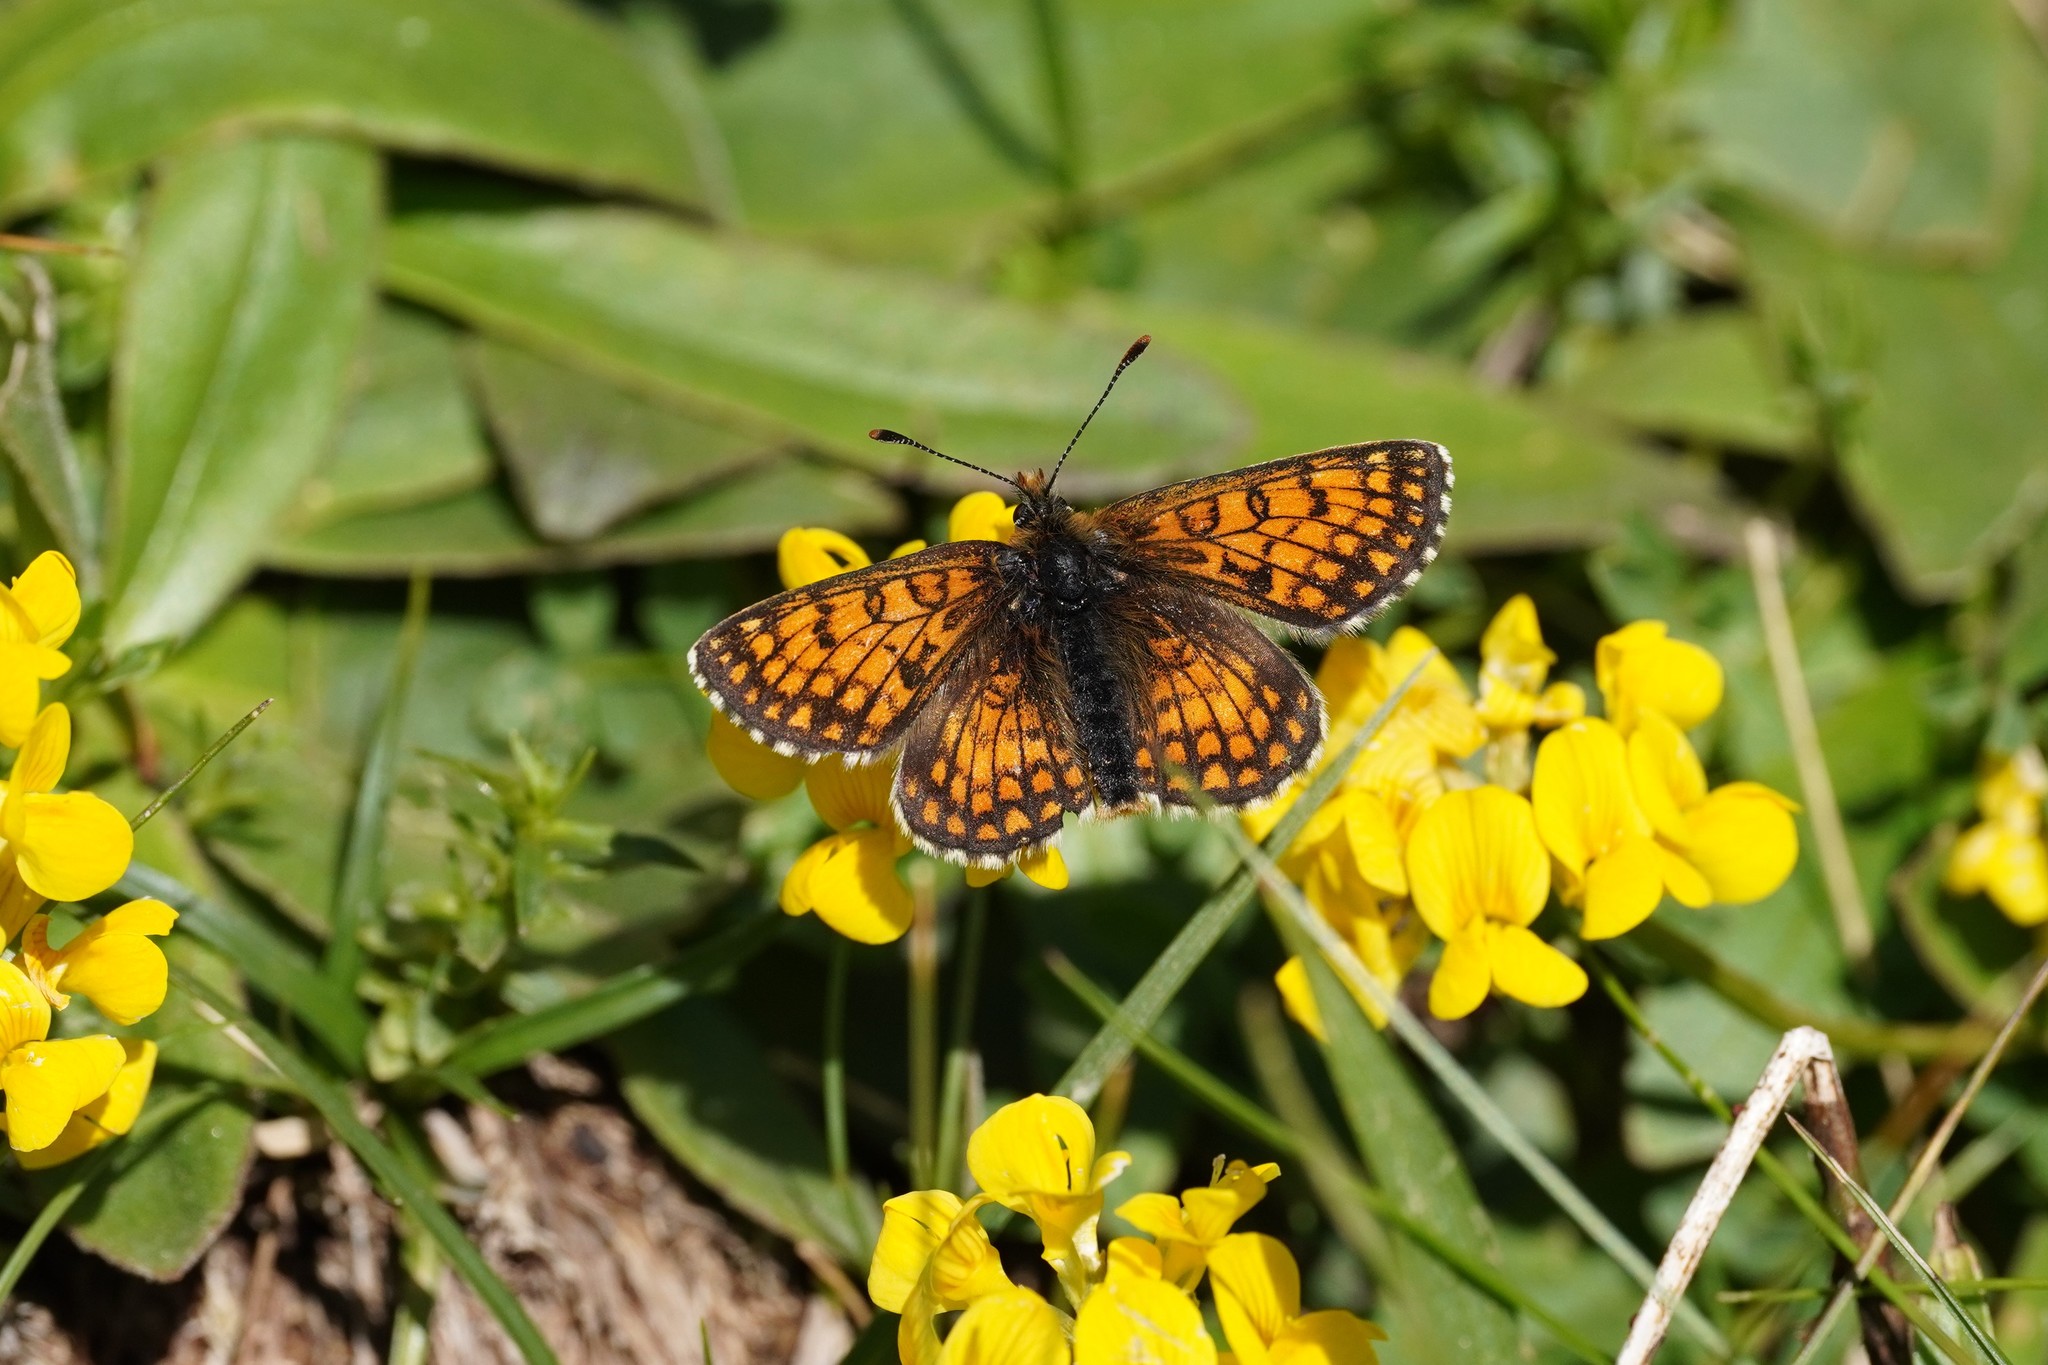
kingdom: Animalia
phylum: Arthropoda
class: Insecta
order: Lepidoptera
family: Nymphalidae
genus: Melitaea
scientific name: Melitaea varia
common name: Grisons fritillary
